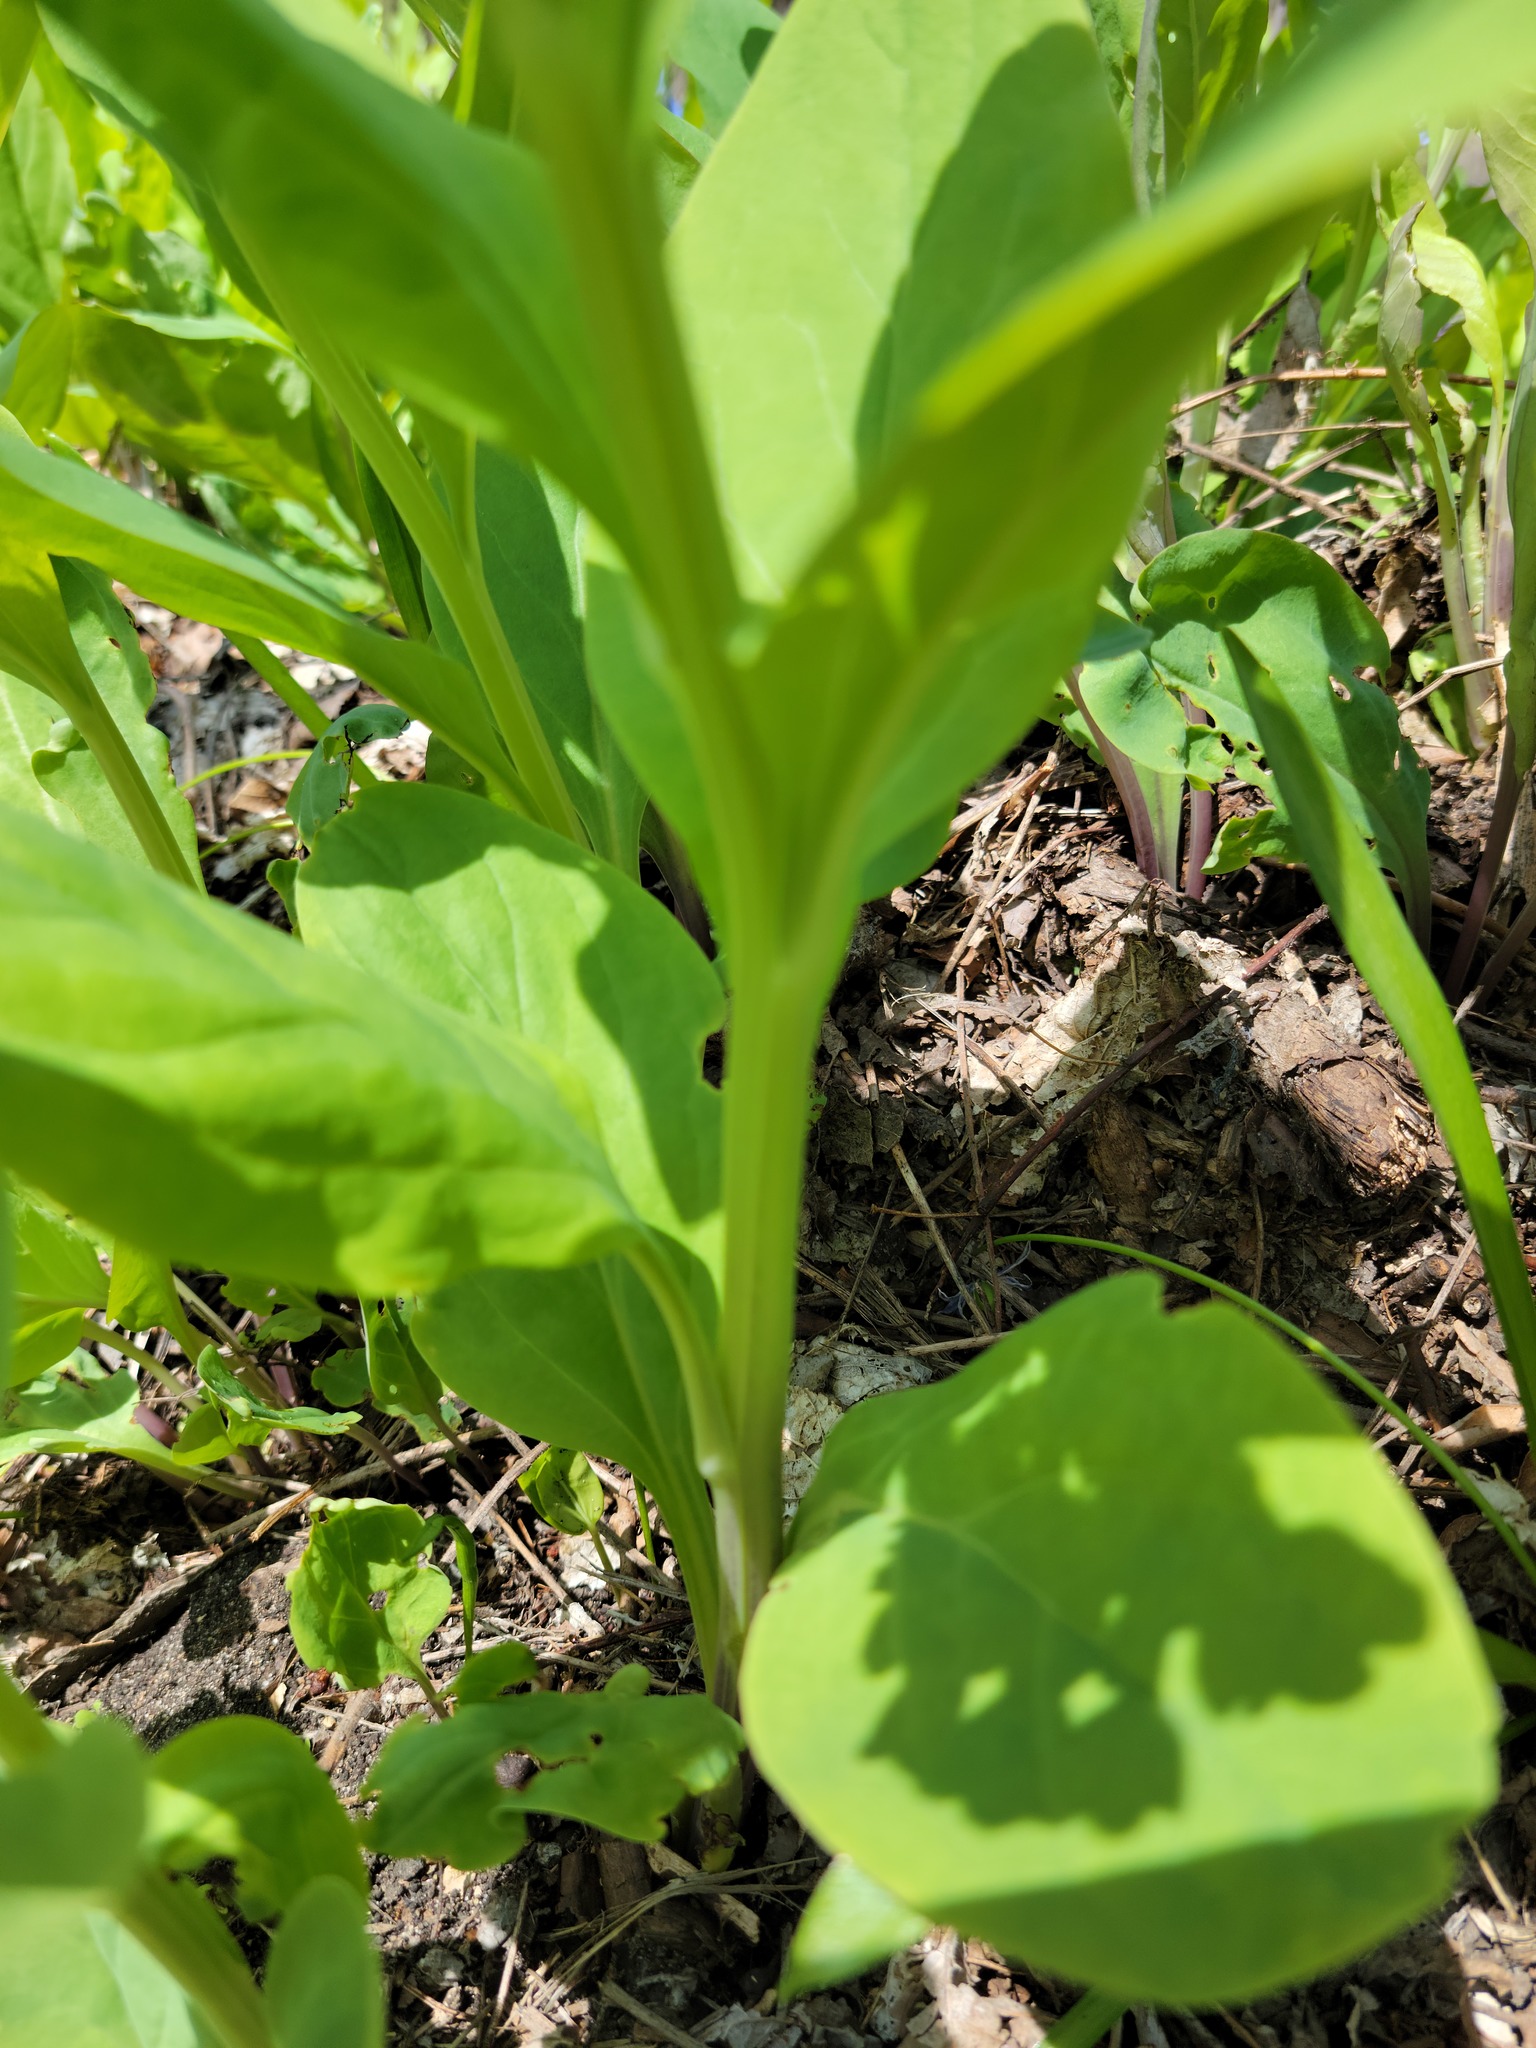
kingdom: Plantae
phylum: Tracheophyta
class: Magnoliopsida
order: Boraginales
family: Boraginaceae
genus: Mertensia
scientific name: Mertensia virginica
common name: Virginia bluebells
